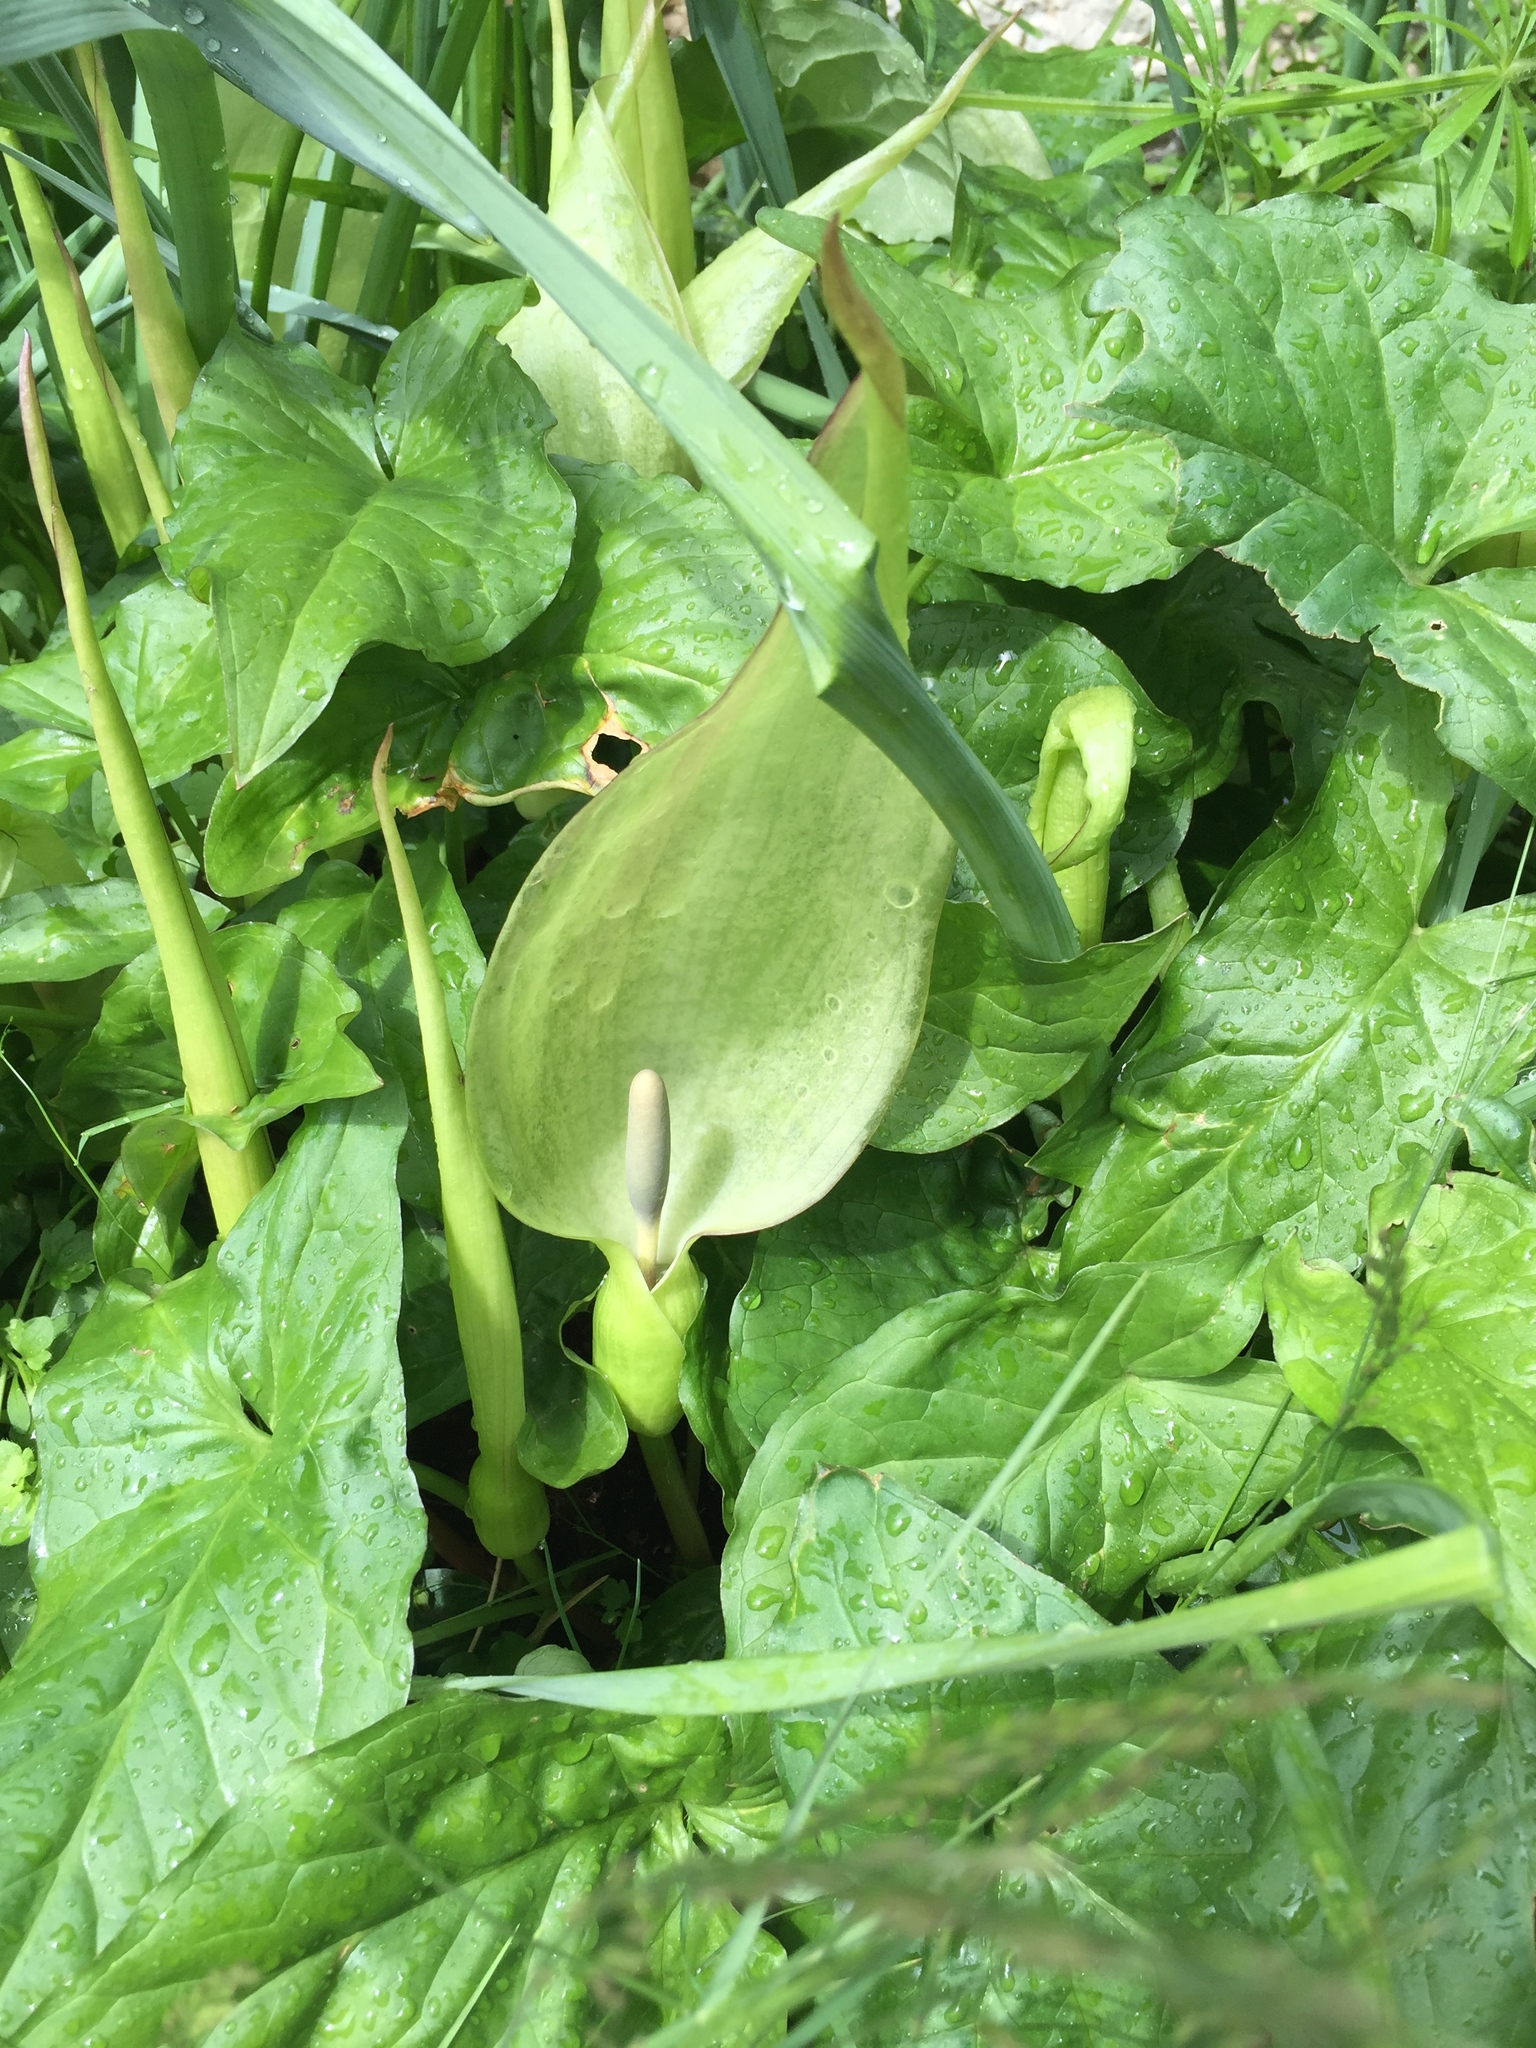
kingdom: Plantae
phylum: Tracheophyta
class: Liliopsida
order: Alismatales
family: Araceae
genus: Arum
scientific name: Arum maculatum
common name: Lords-and-ladies
